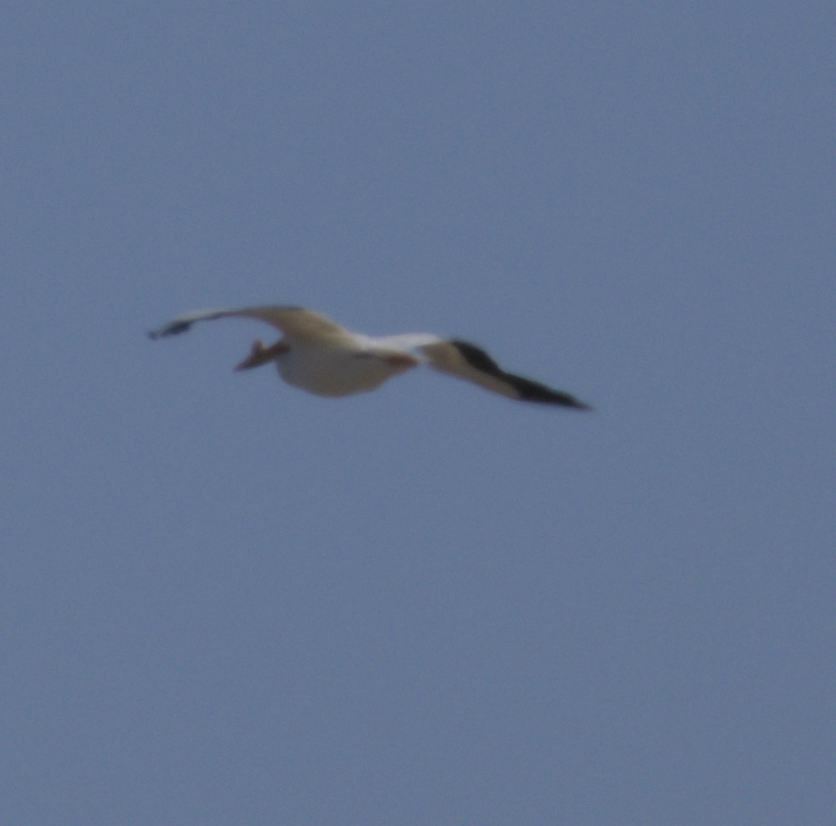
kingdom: Animalia
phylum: Chordata
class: Aves
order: Pelecaniformes
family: Pelecanidae
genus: Pelecanus
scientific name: Pelecanus erythrorhynchos
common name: American white pelican
